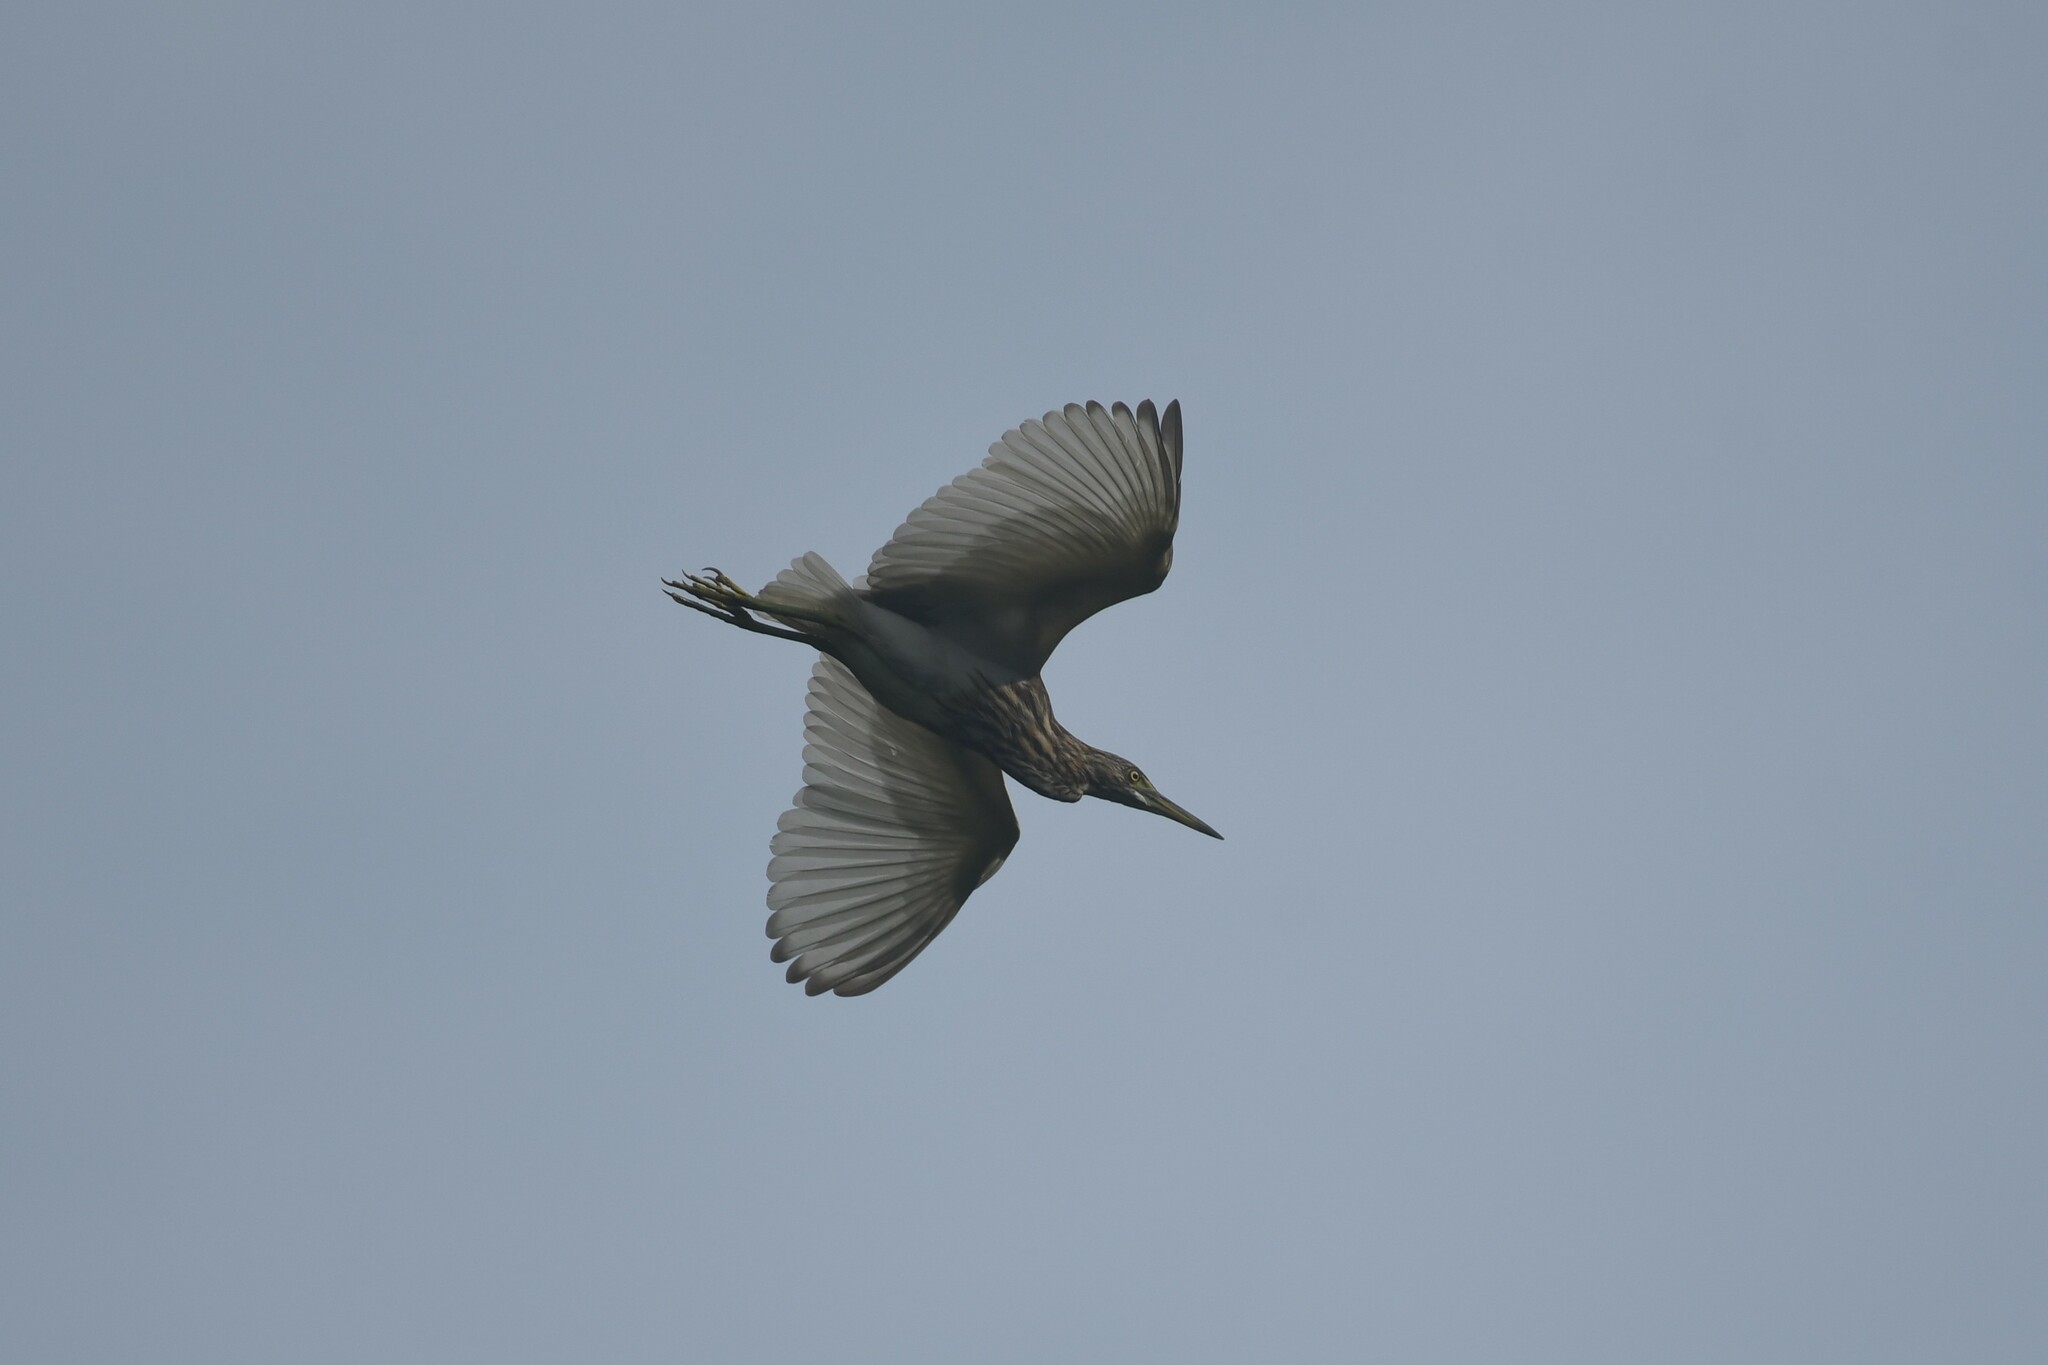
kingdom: Animalia
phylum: Chordata
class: Aves
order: Pelecaniformes
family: Ardeidae
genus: Ardeola
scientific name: Ardeola bacchus
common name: Chinese pond heron
